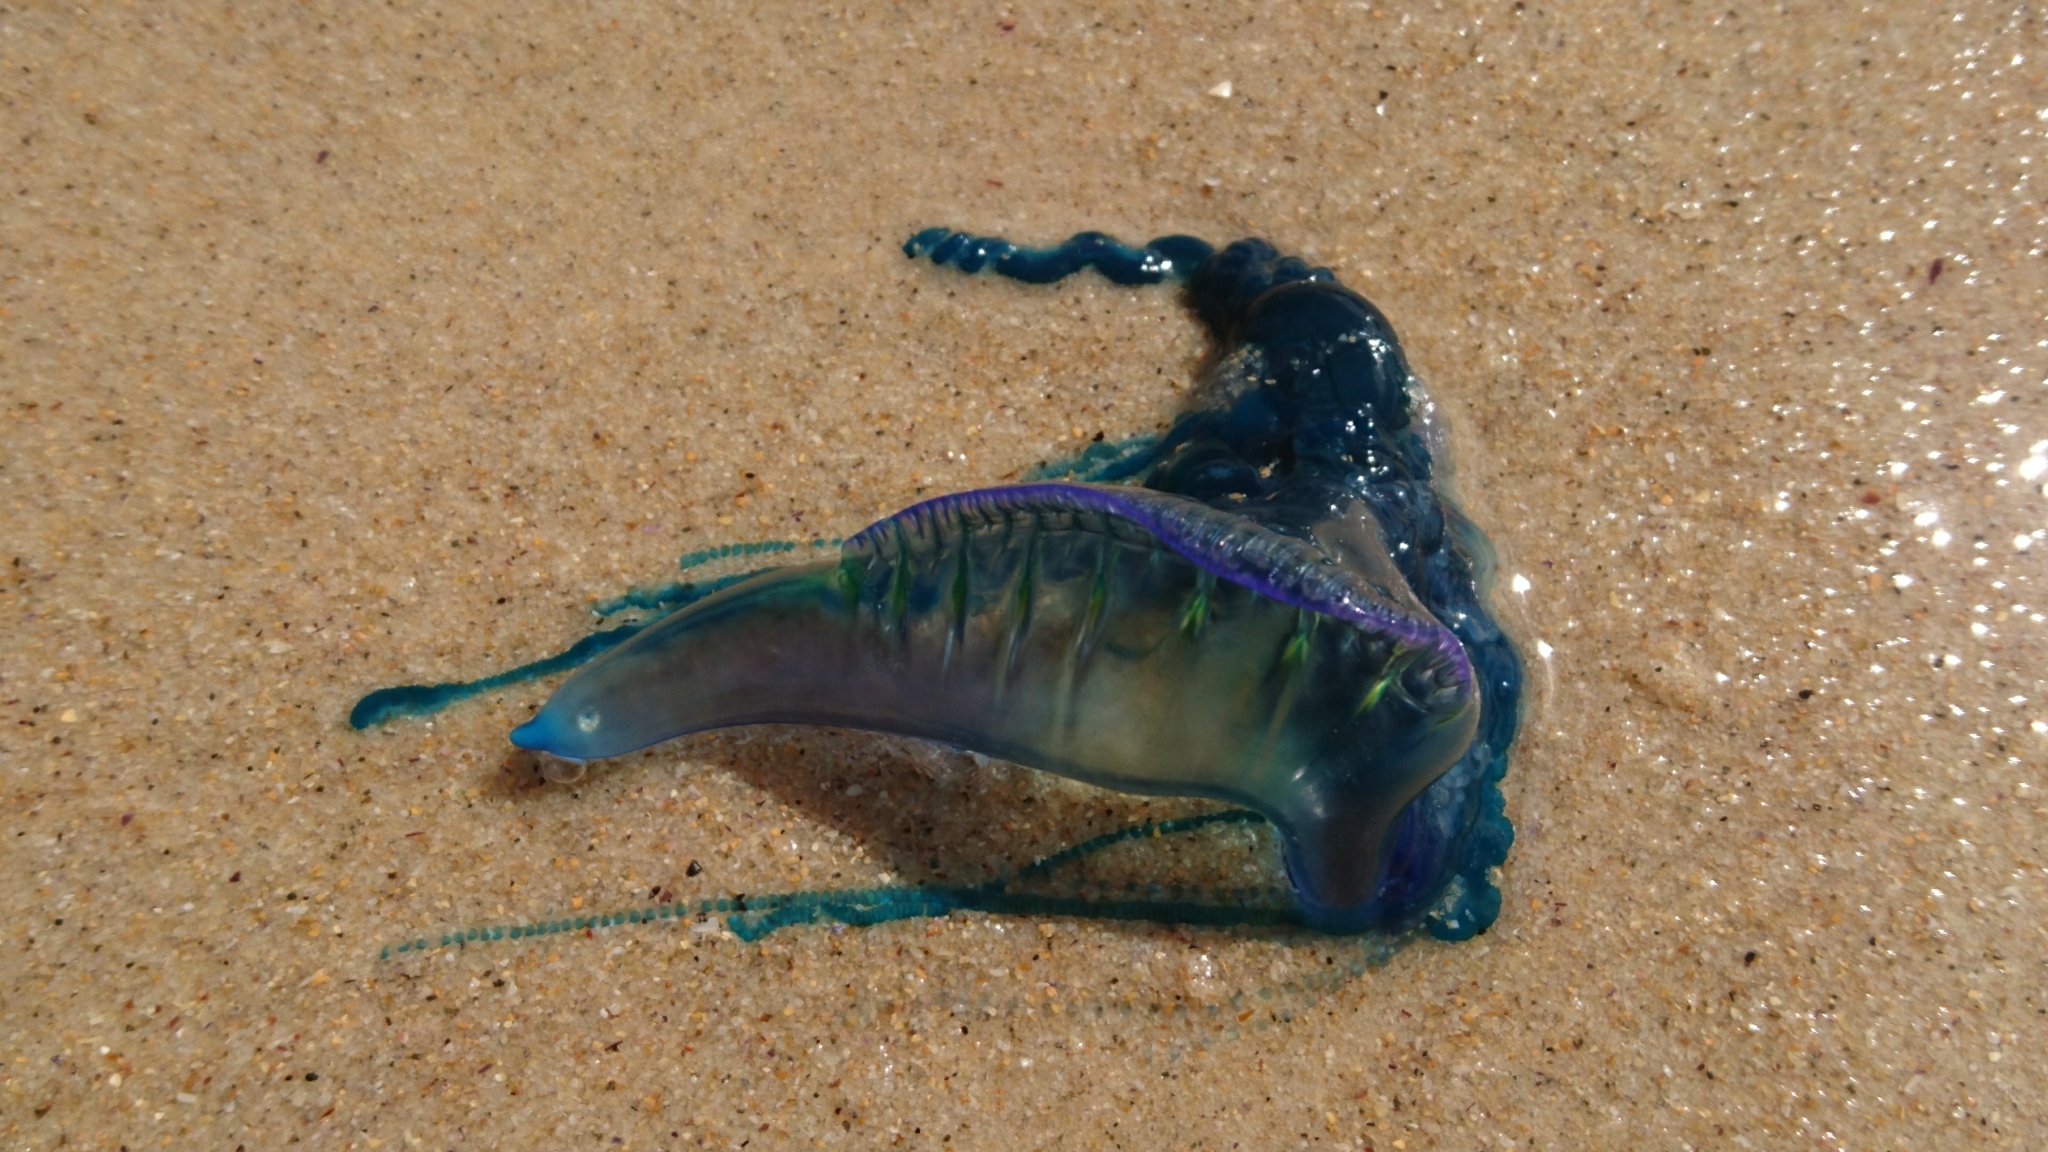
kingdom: Animalia
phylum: Cnidaria
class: Hydrozoa
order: Siphonophorae
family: Physaliidae
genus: Physalia
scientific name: Physalia physalis
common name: Portuguese man-of-war
